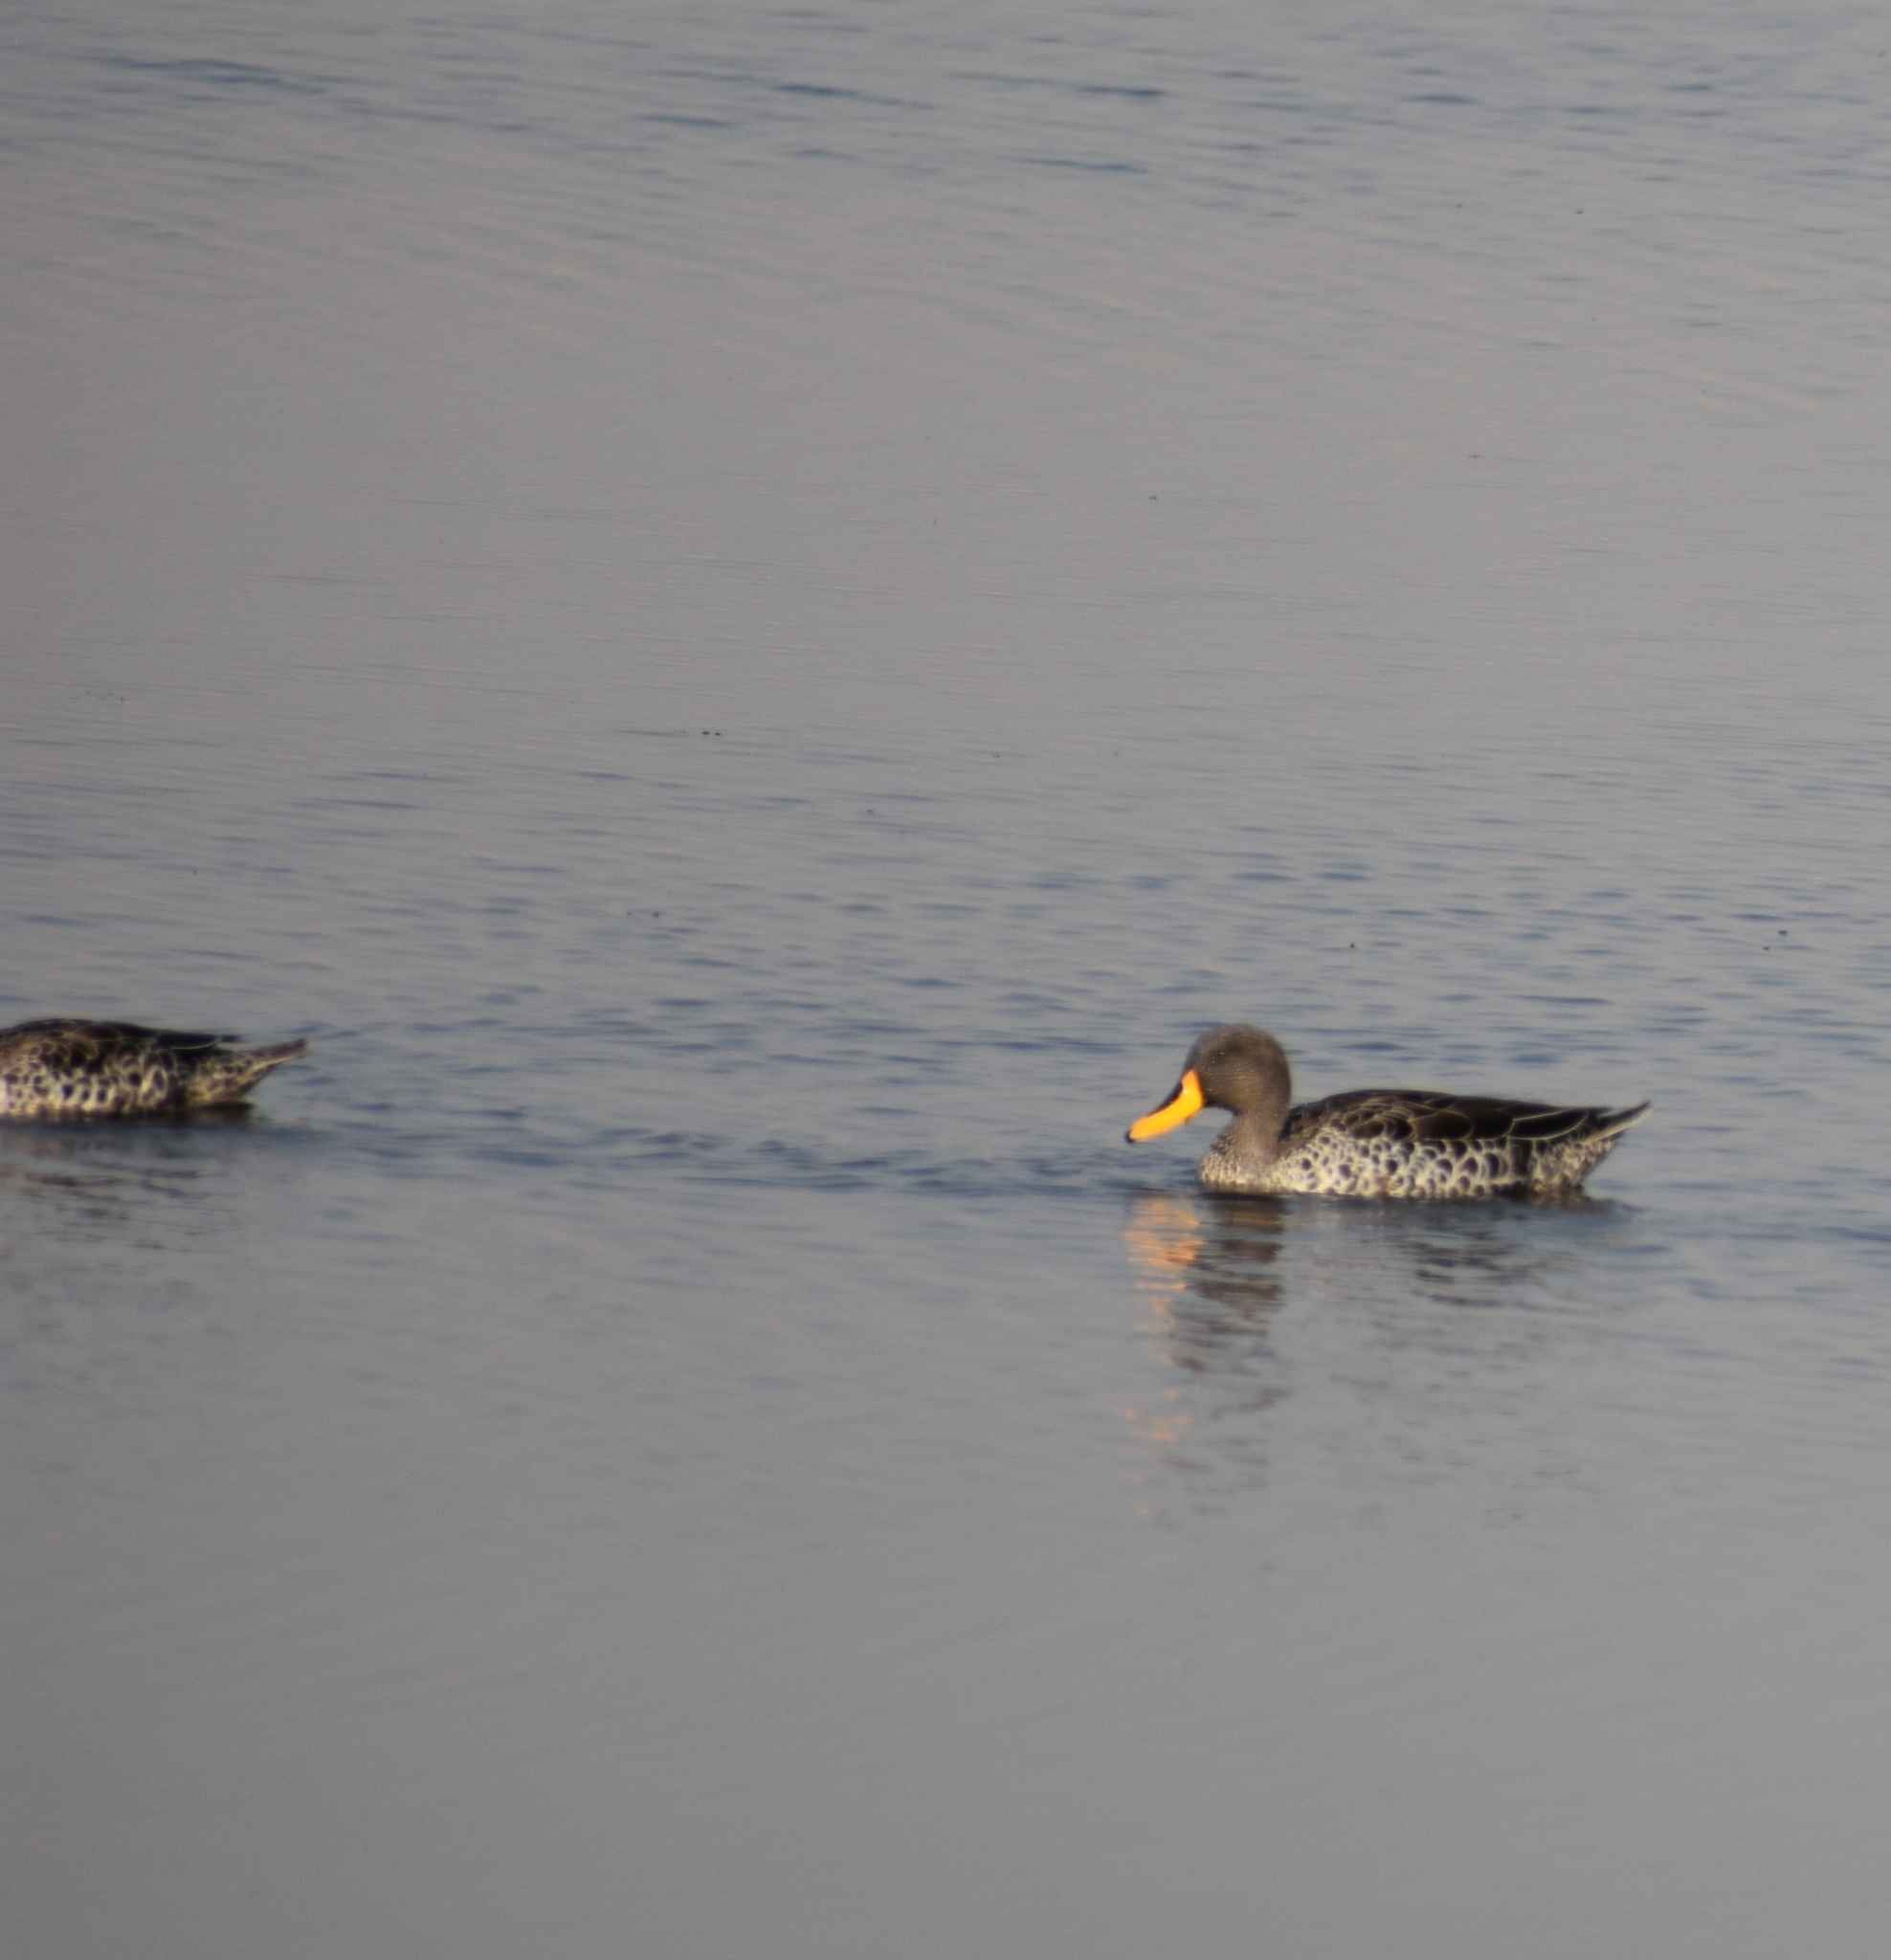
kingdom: Animalia
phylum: Chordata
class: Aves
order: Anseriformes
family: Anatidae
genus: Anas
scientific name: Anas undulata
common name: Yellow-billed duck
